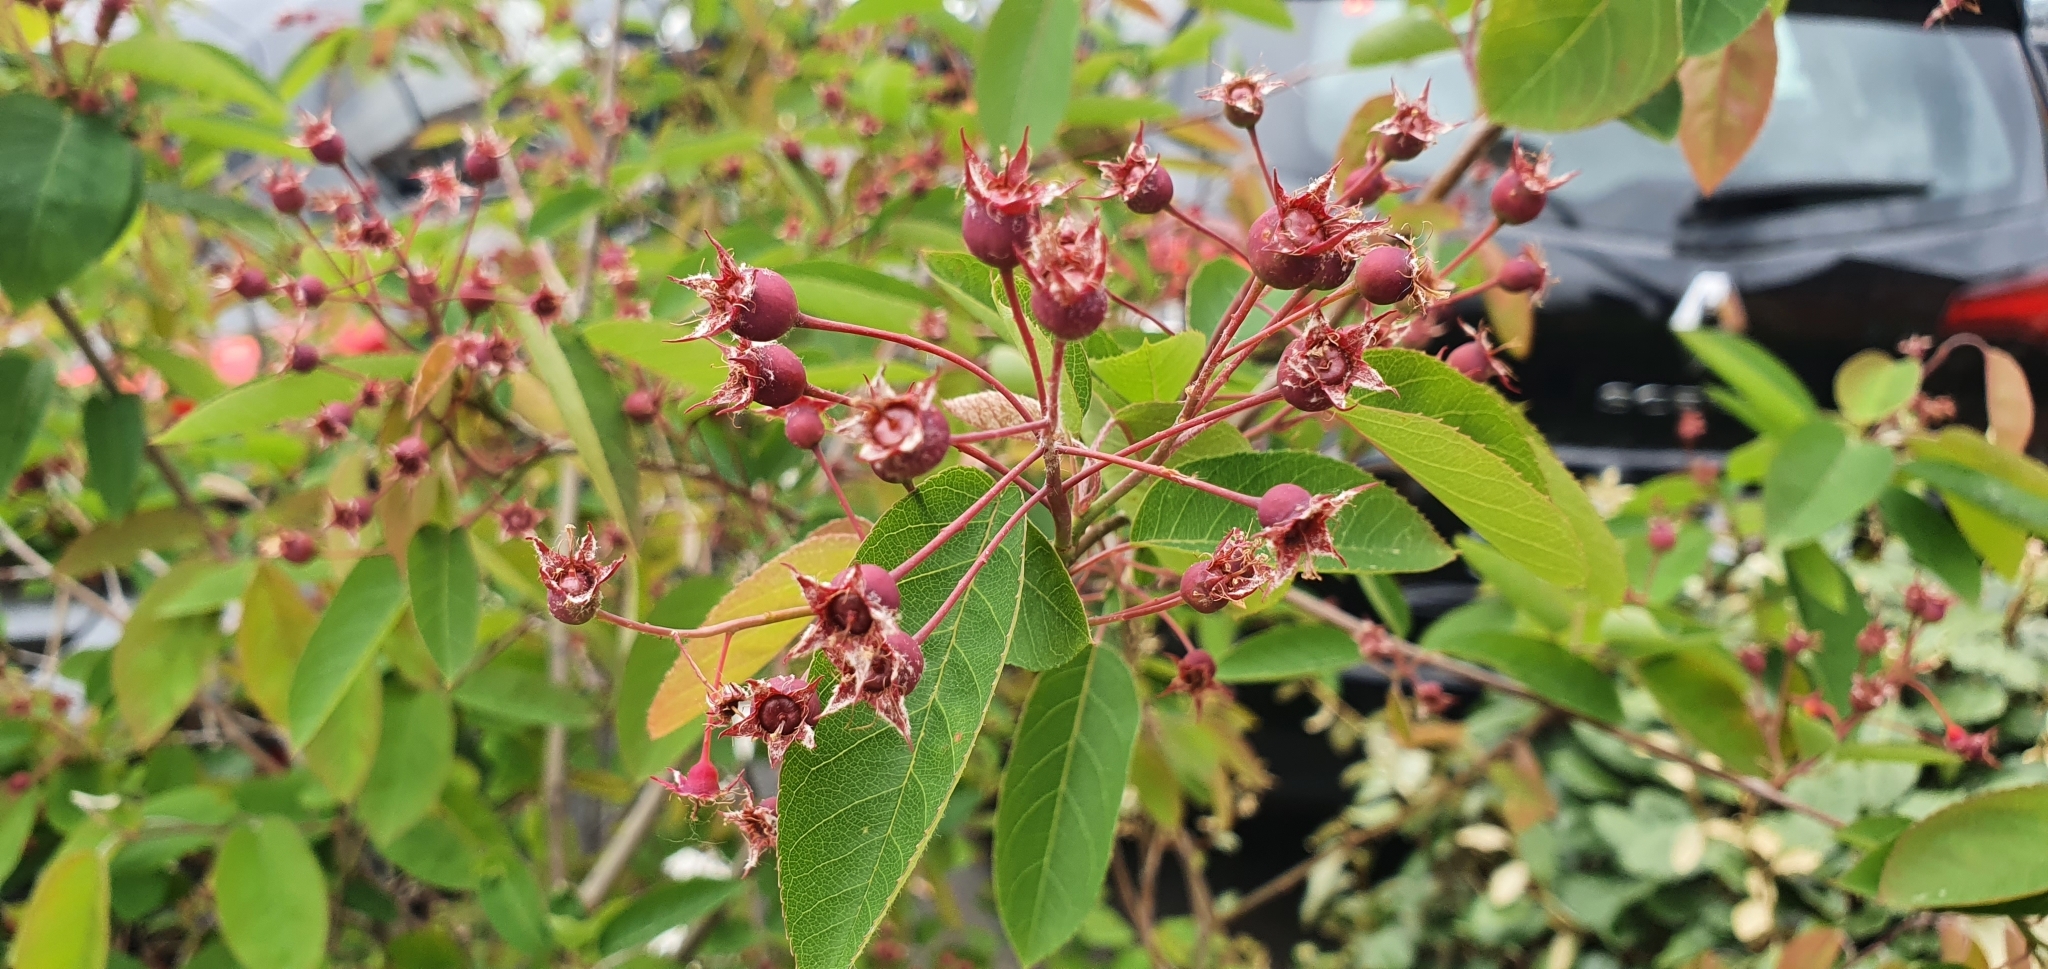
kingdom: Plantae
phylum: Tracheophyta
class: Magnoliopsida
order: Rosales
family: Rosaceae
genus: Amelanchier
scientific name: Amelanchier ovalis
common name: Serviceberry
